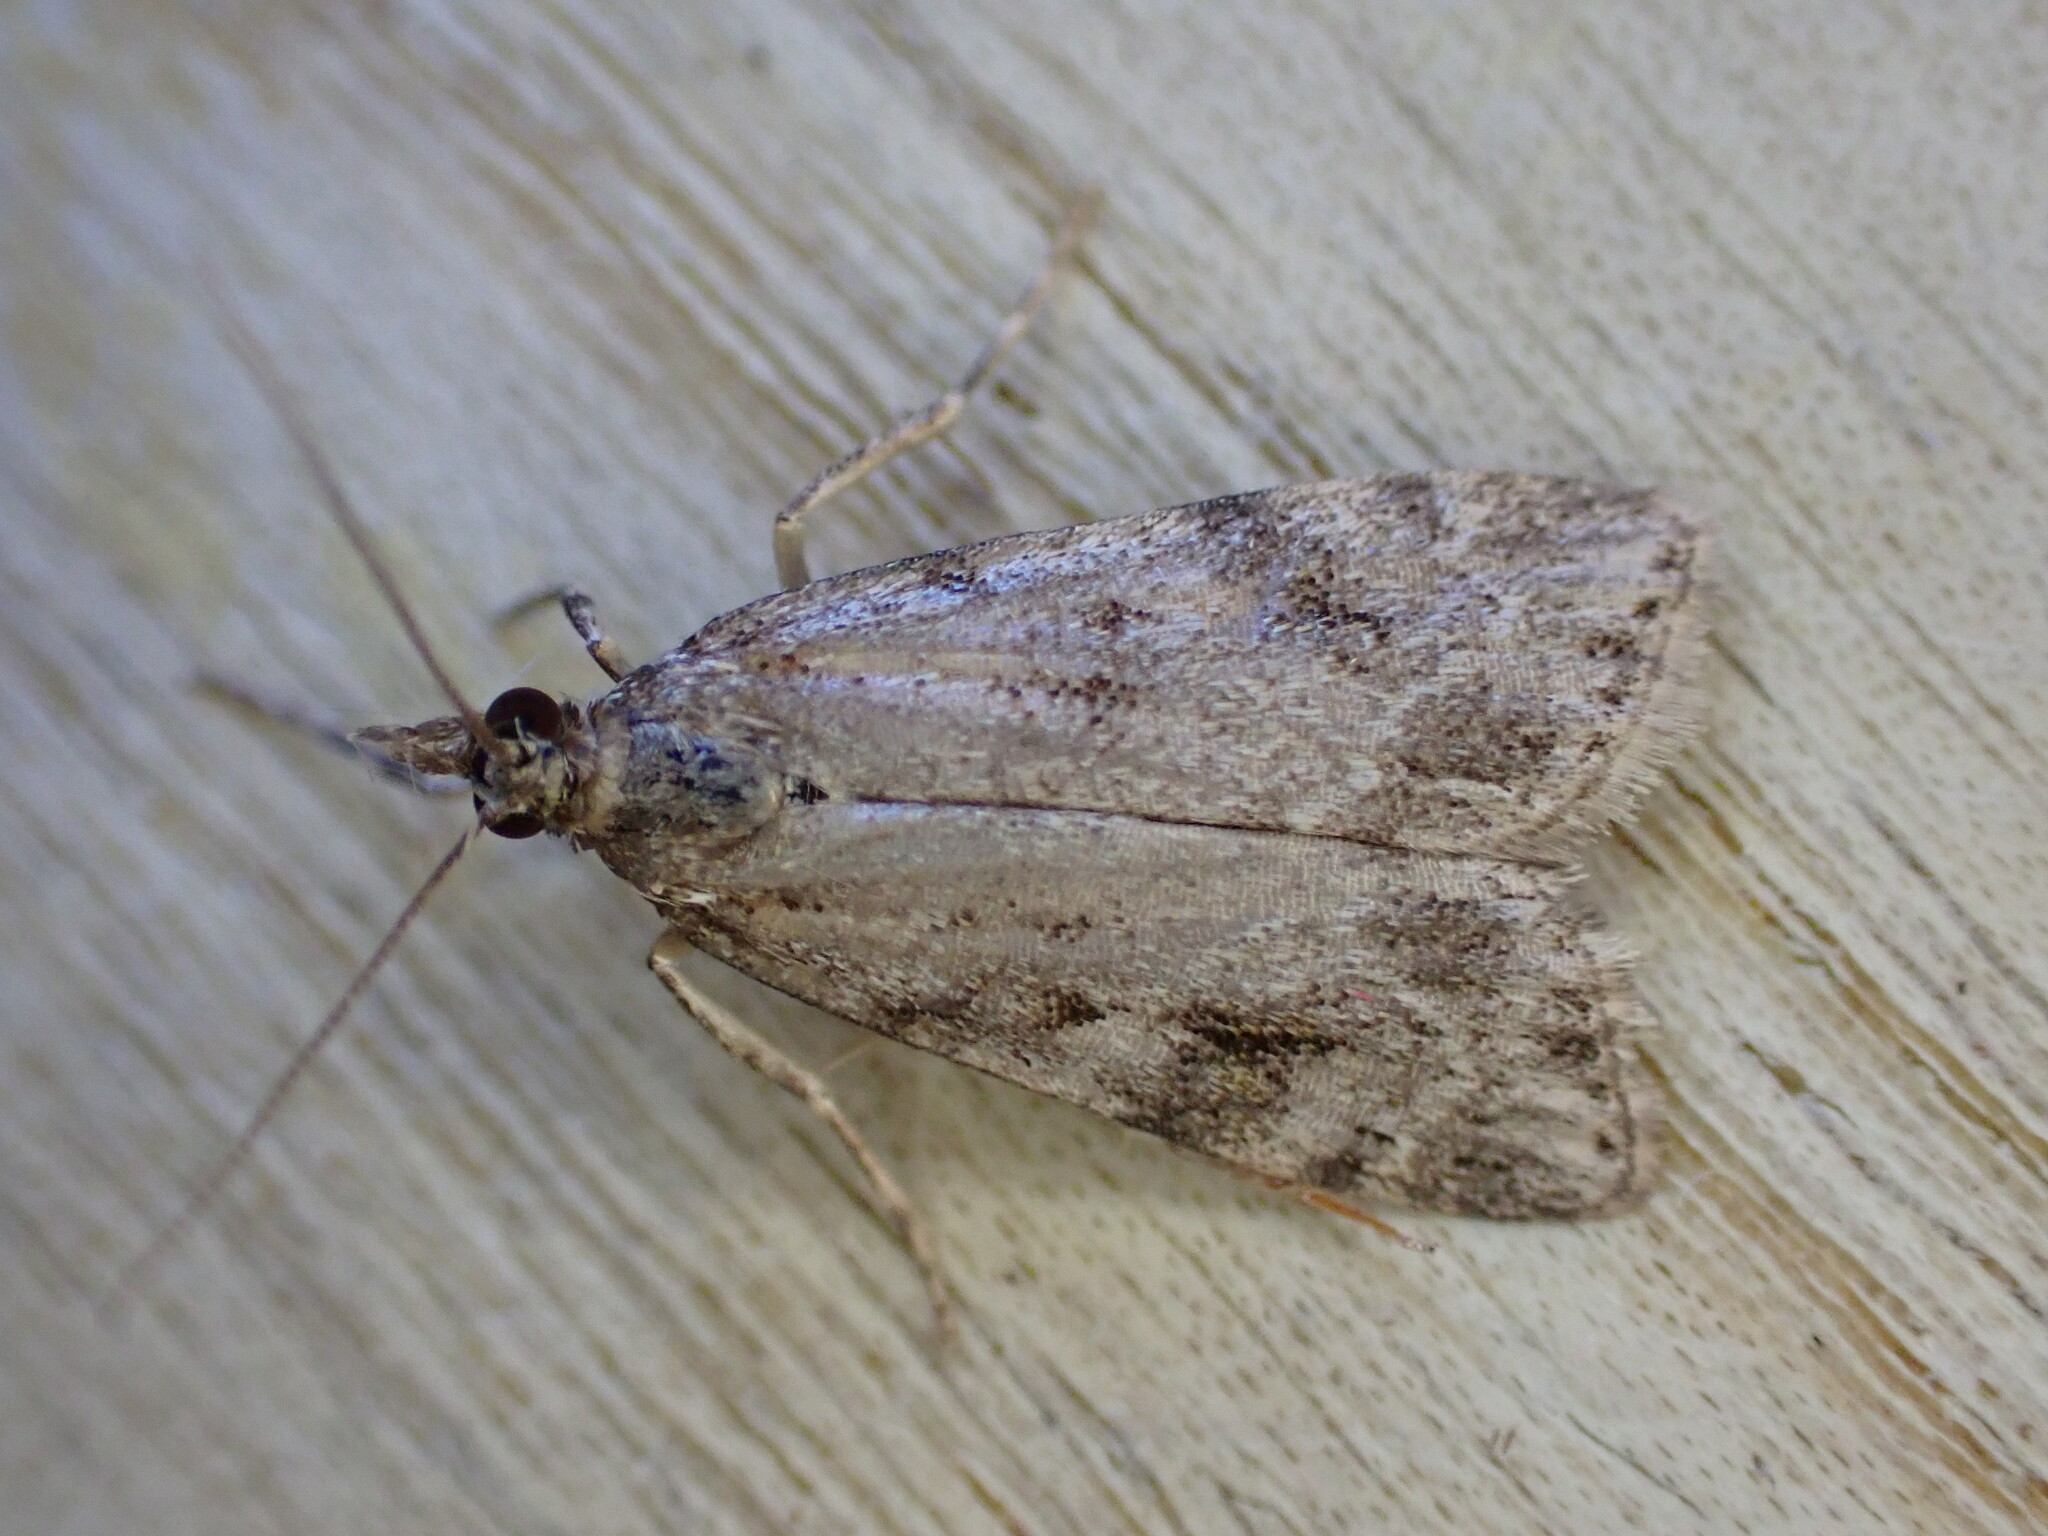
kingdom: Animalia
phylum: Arthropoda
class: Insecta
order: Lepidoptera
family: Crambidae
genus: Scoparia
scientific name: Scoparia ambigualis
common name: Common grey
